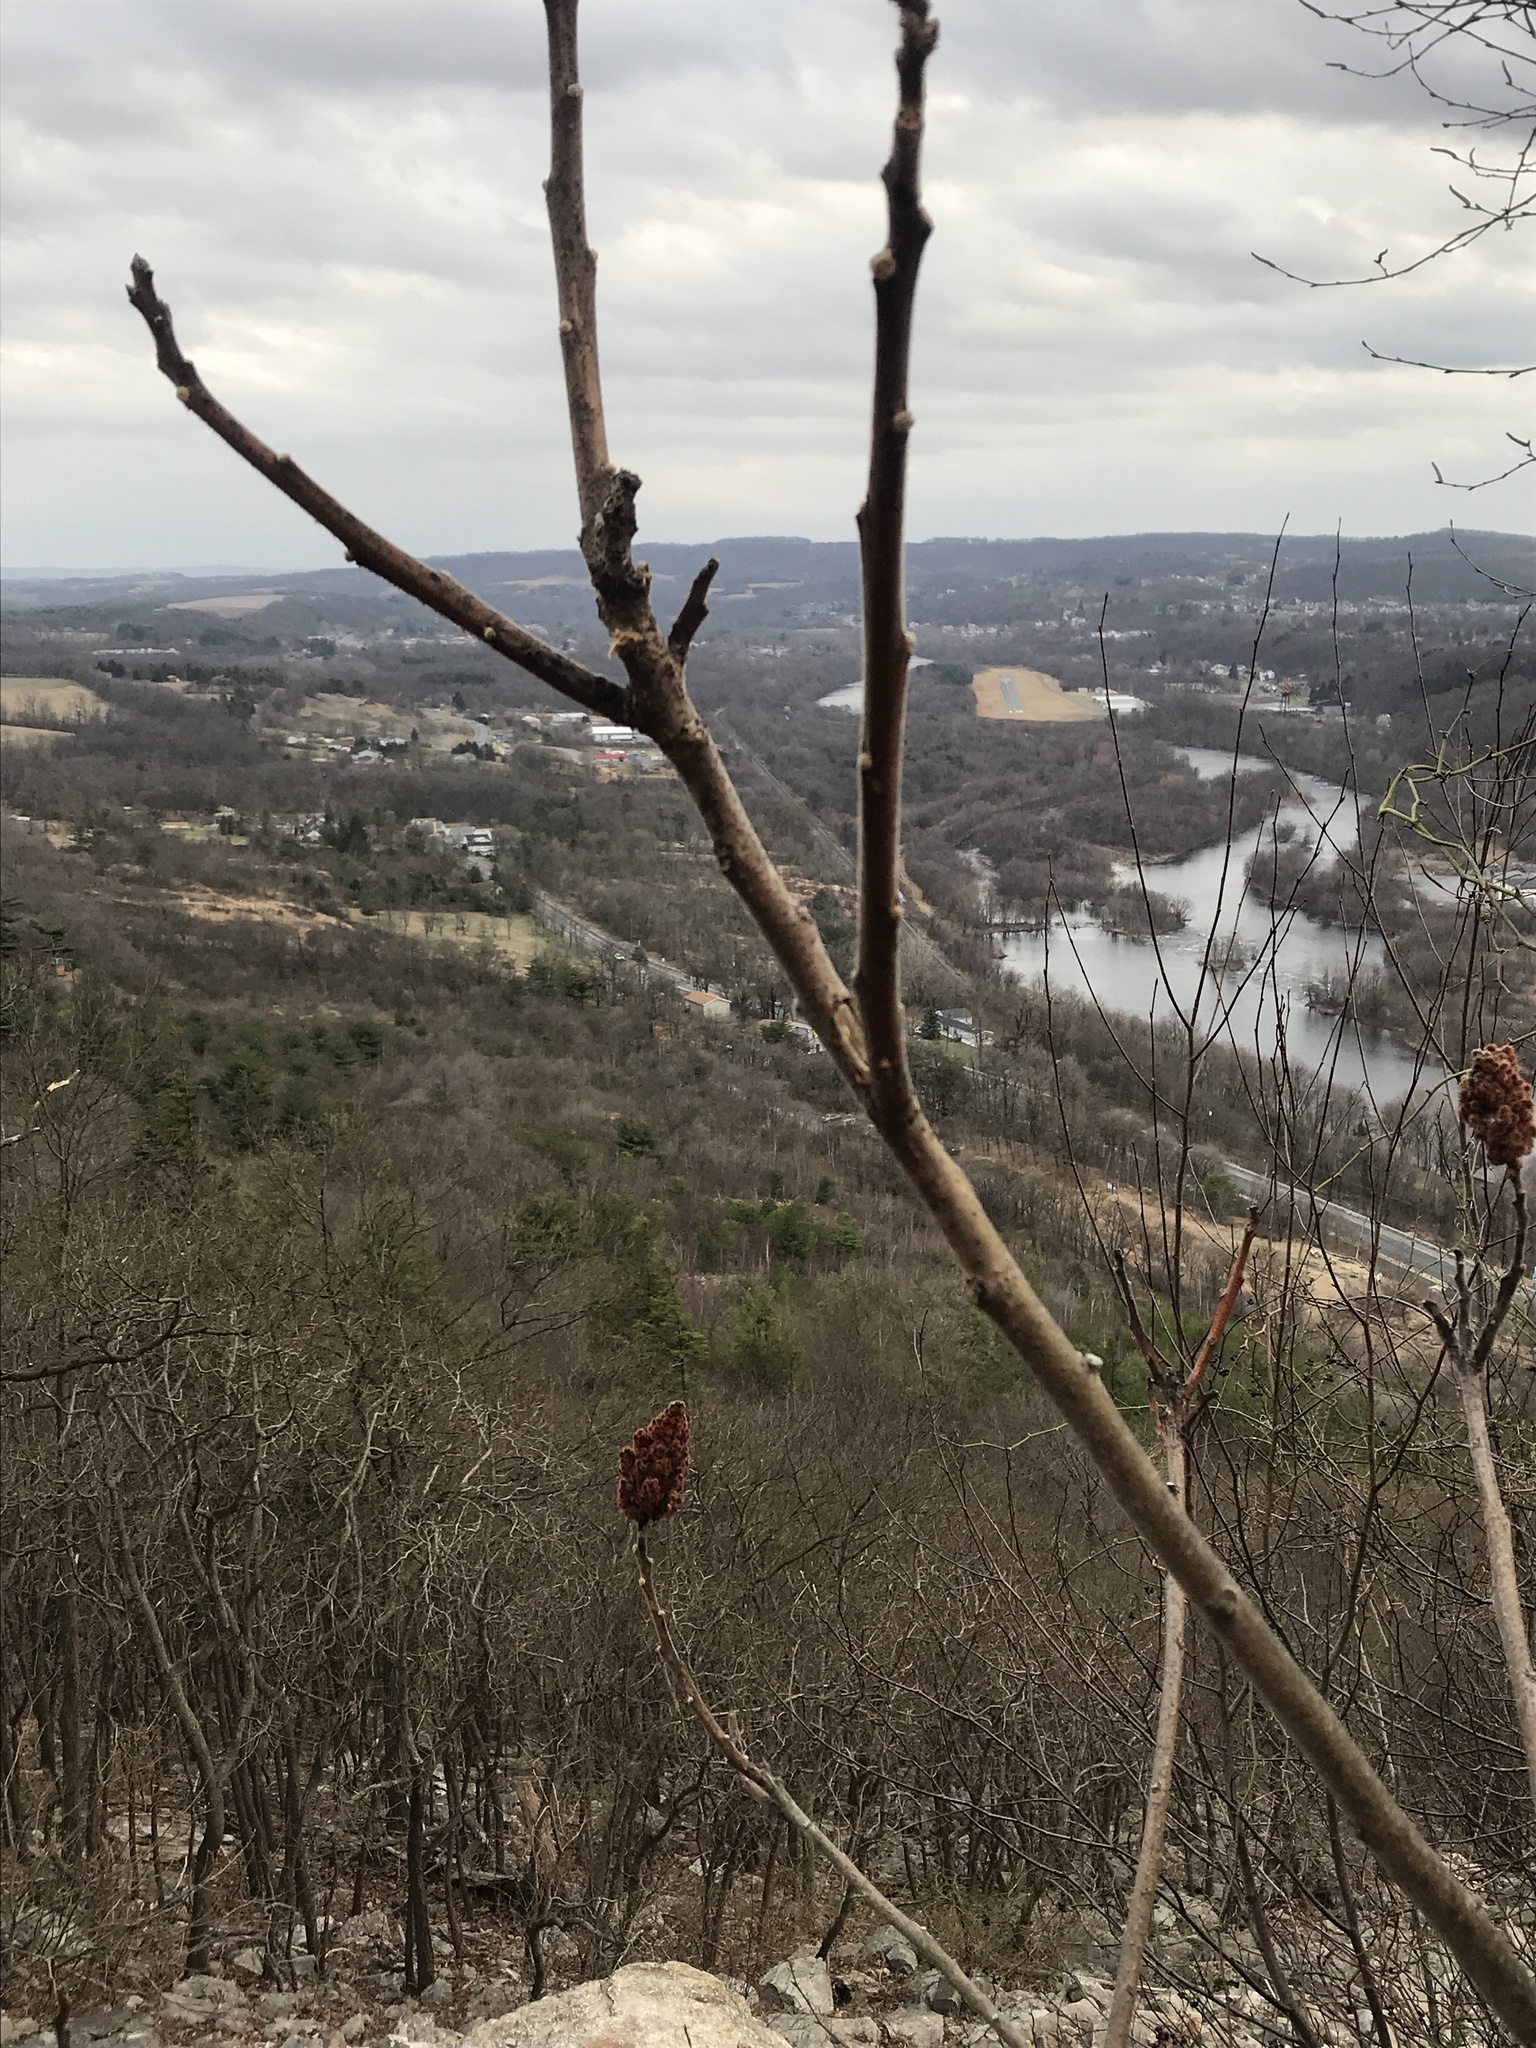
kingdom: Plantae
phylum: Tracheophyta
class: Magnoliopsida
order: Sapindales
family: Anacardiaceae
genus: Rhus
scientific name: Rhus typhina
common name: Staghorn sumac
